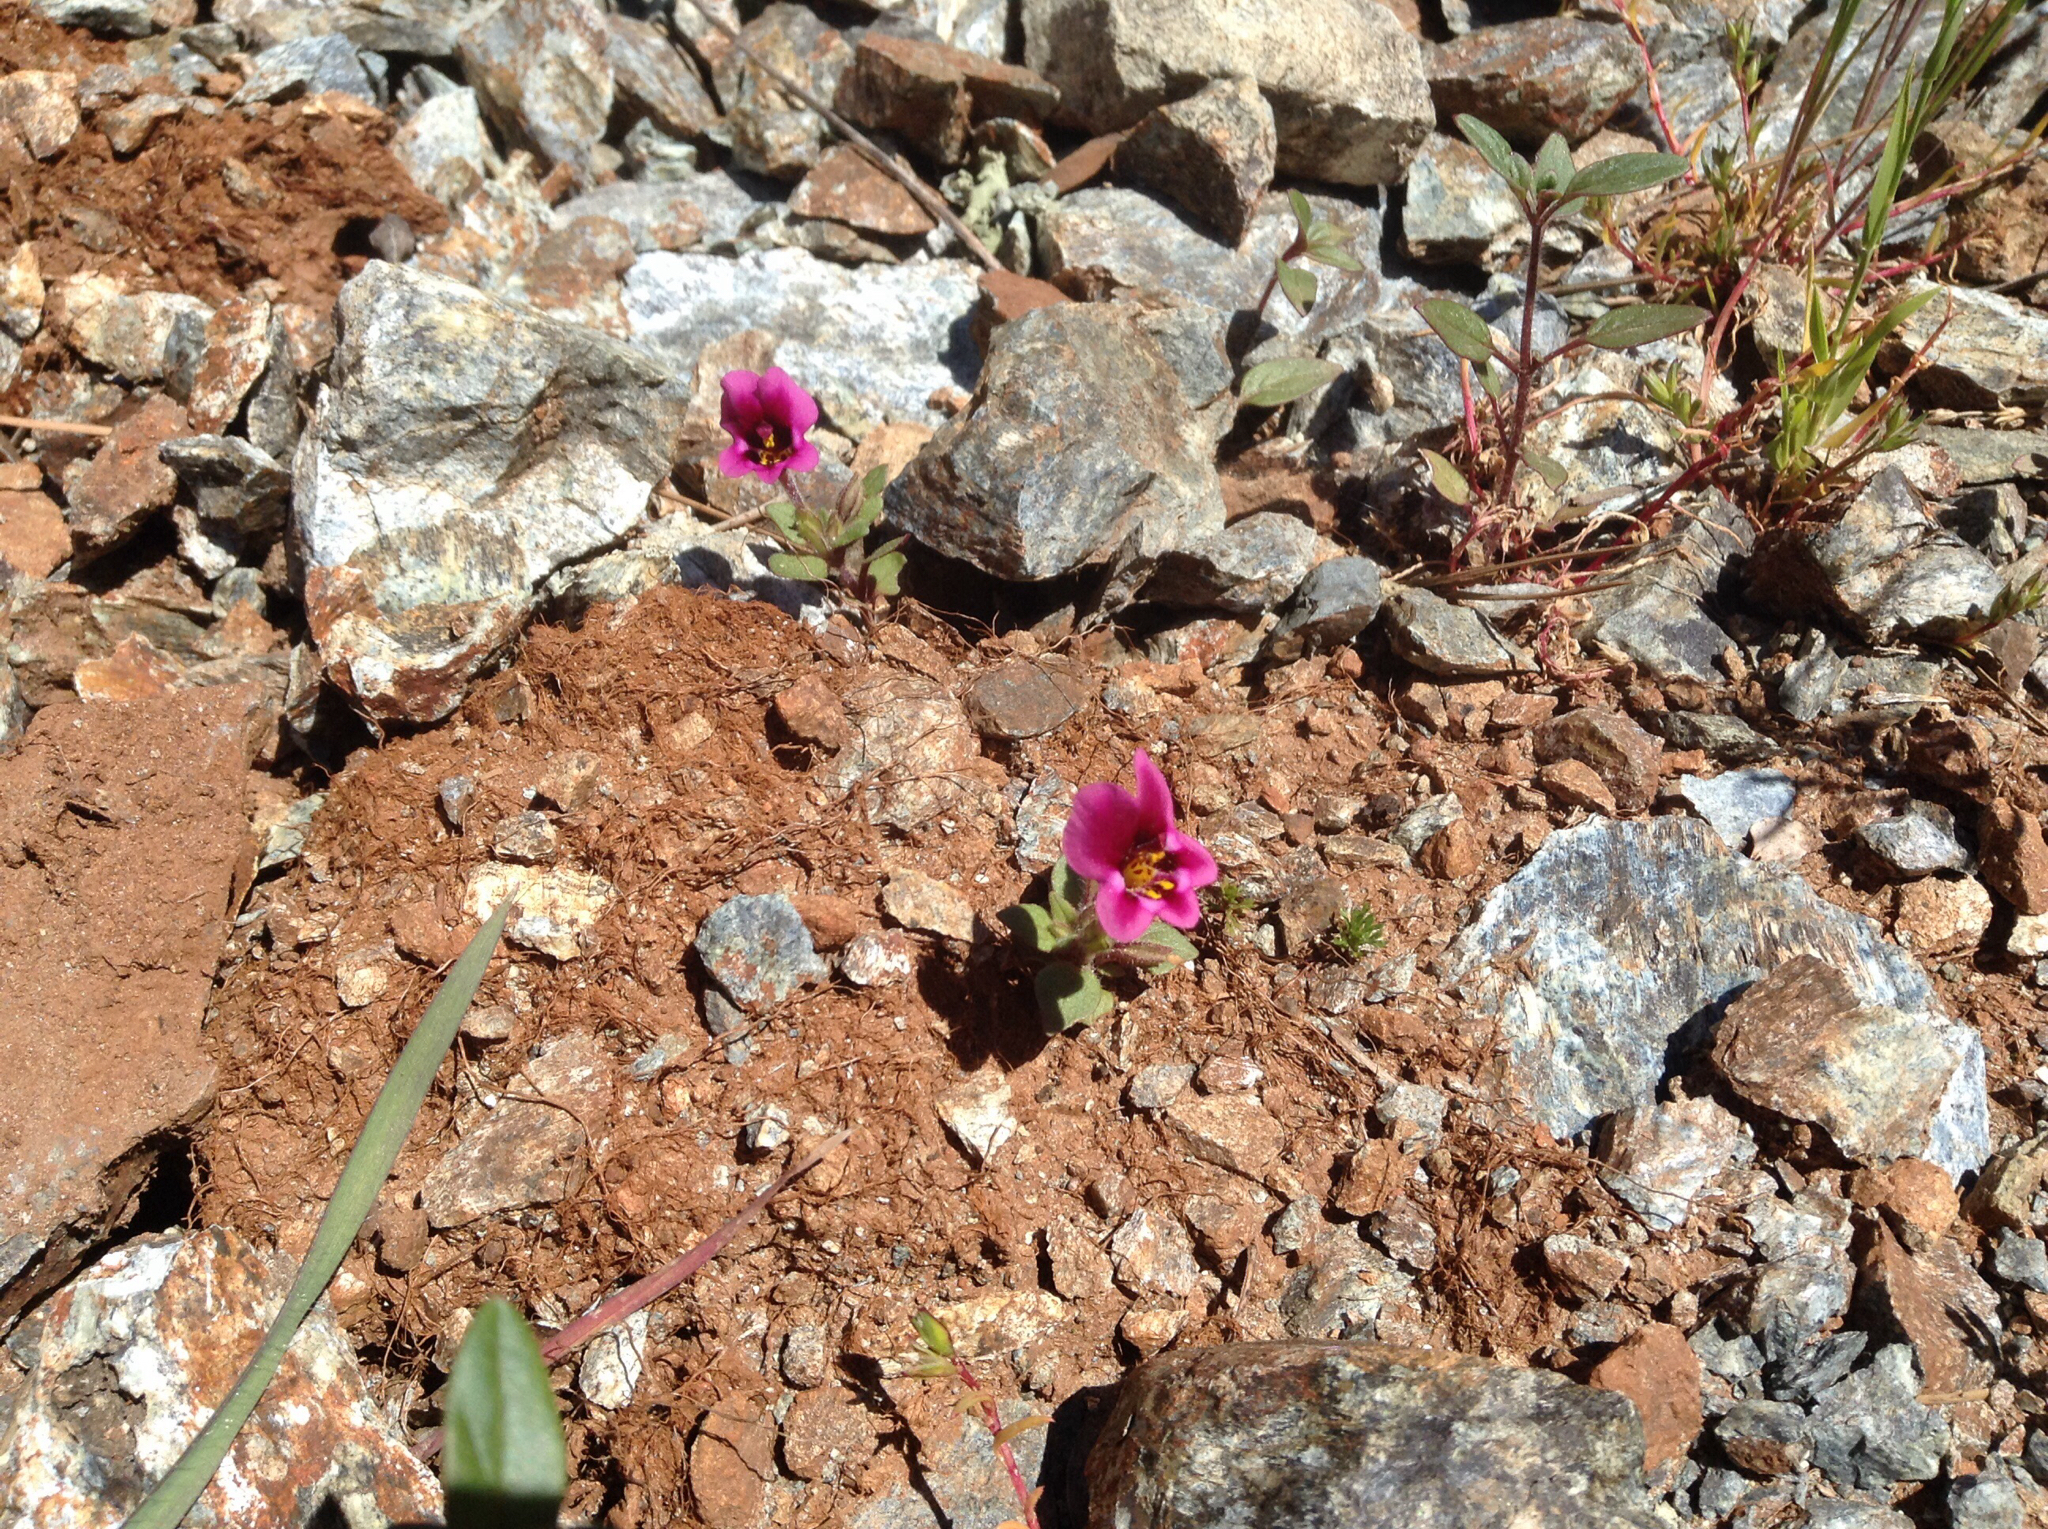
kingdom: Plantae
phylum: Tracheophyta
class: Magnoliopsida
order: Lamiales
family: Phrymaceae
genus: Diplacus
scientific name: Diplacus kelloggii
